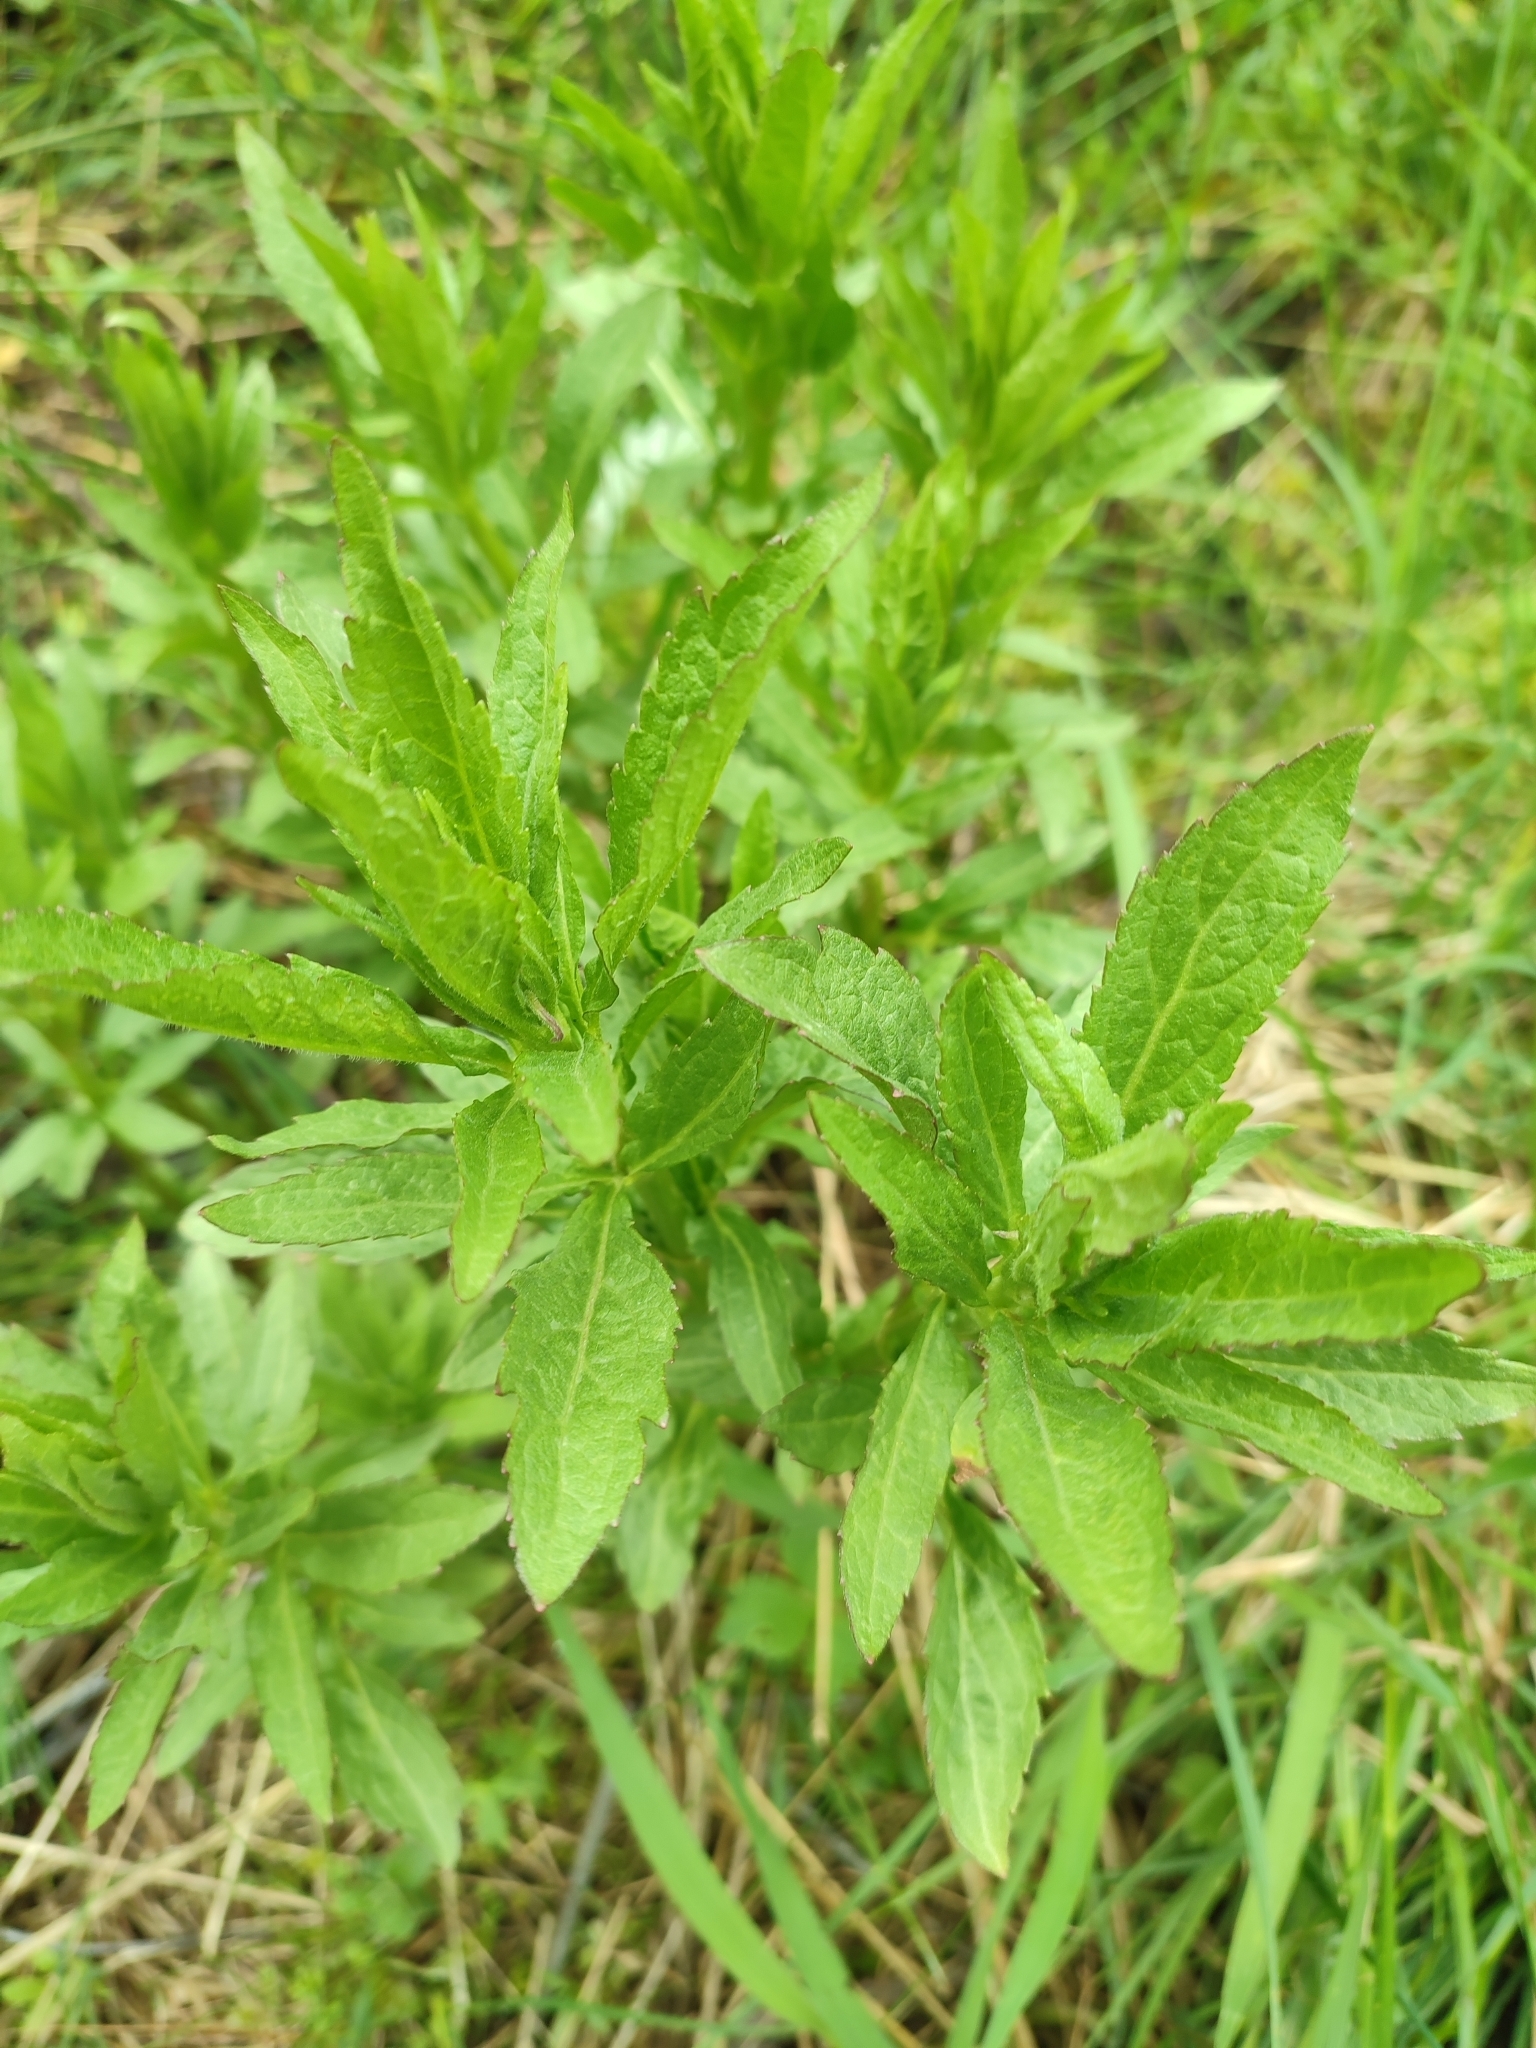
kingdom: Plantae
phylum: Tracheophyta
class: Magnoliopsida
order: Asterales
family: Asteraceae
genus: Eupatorium
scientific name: Eupatorium cannabinum
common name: Hemp-agrimony
